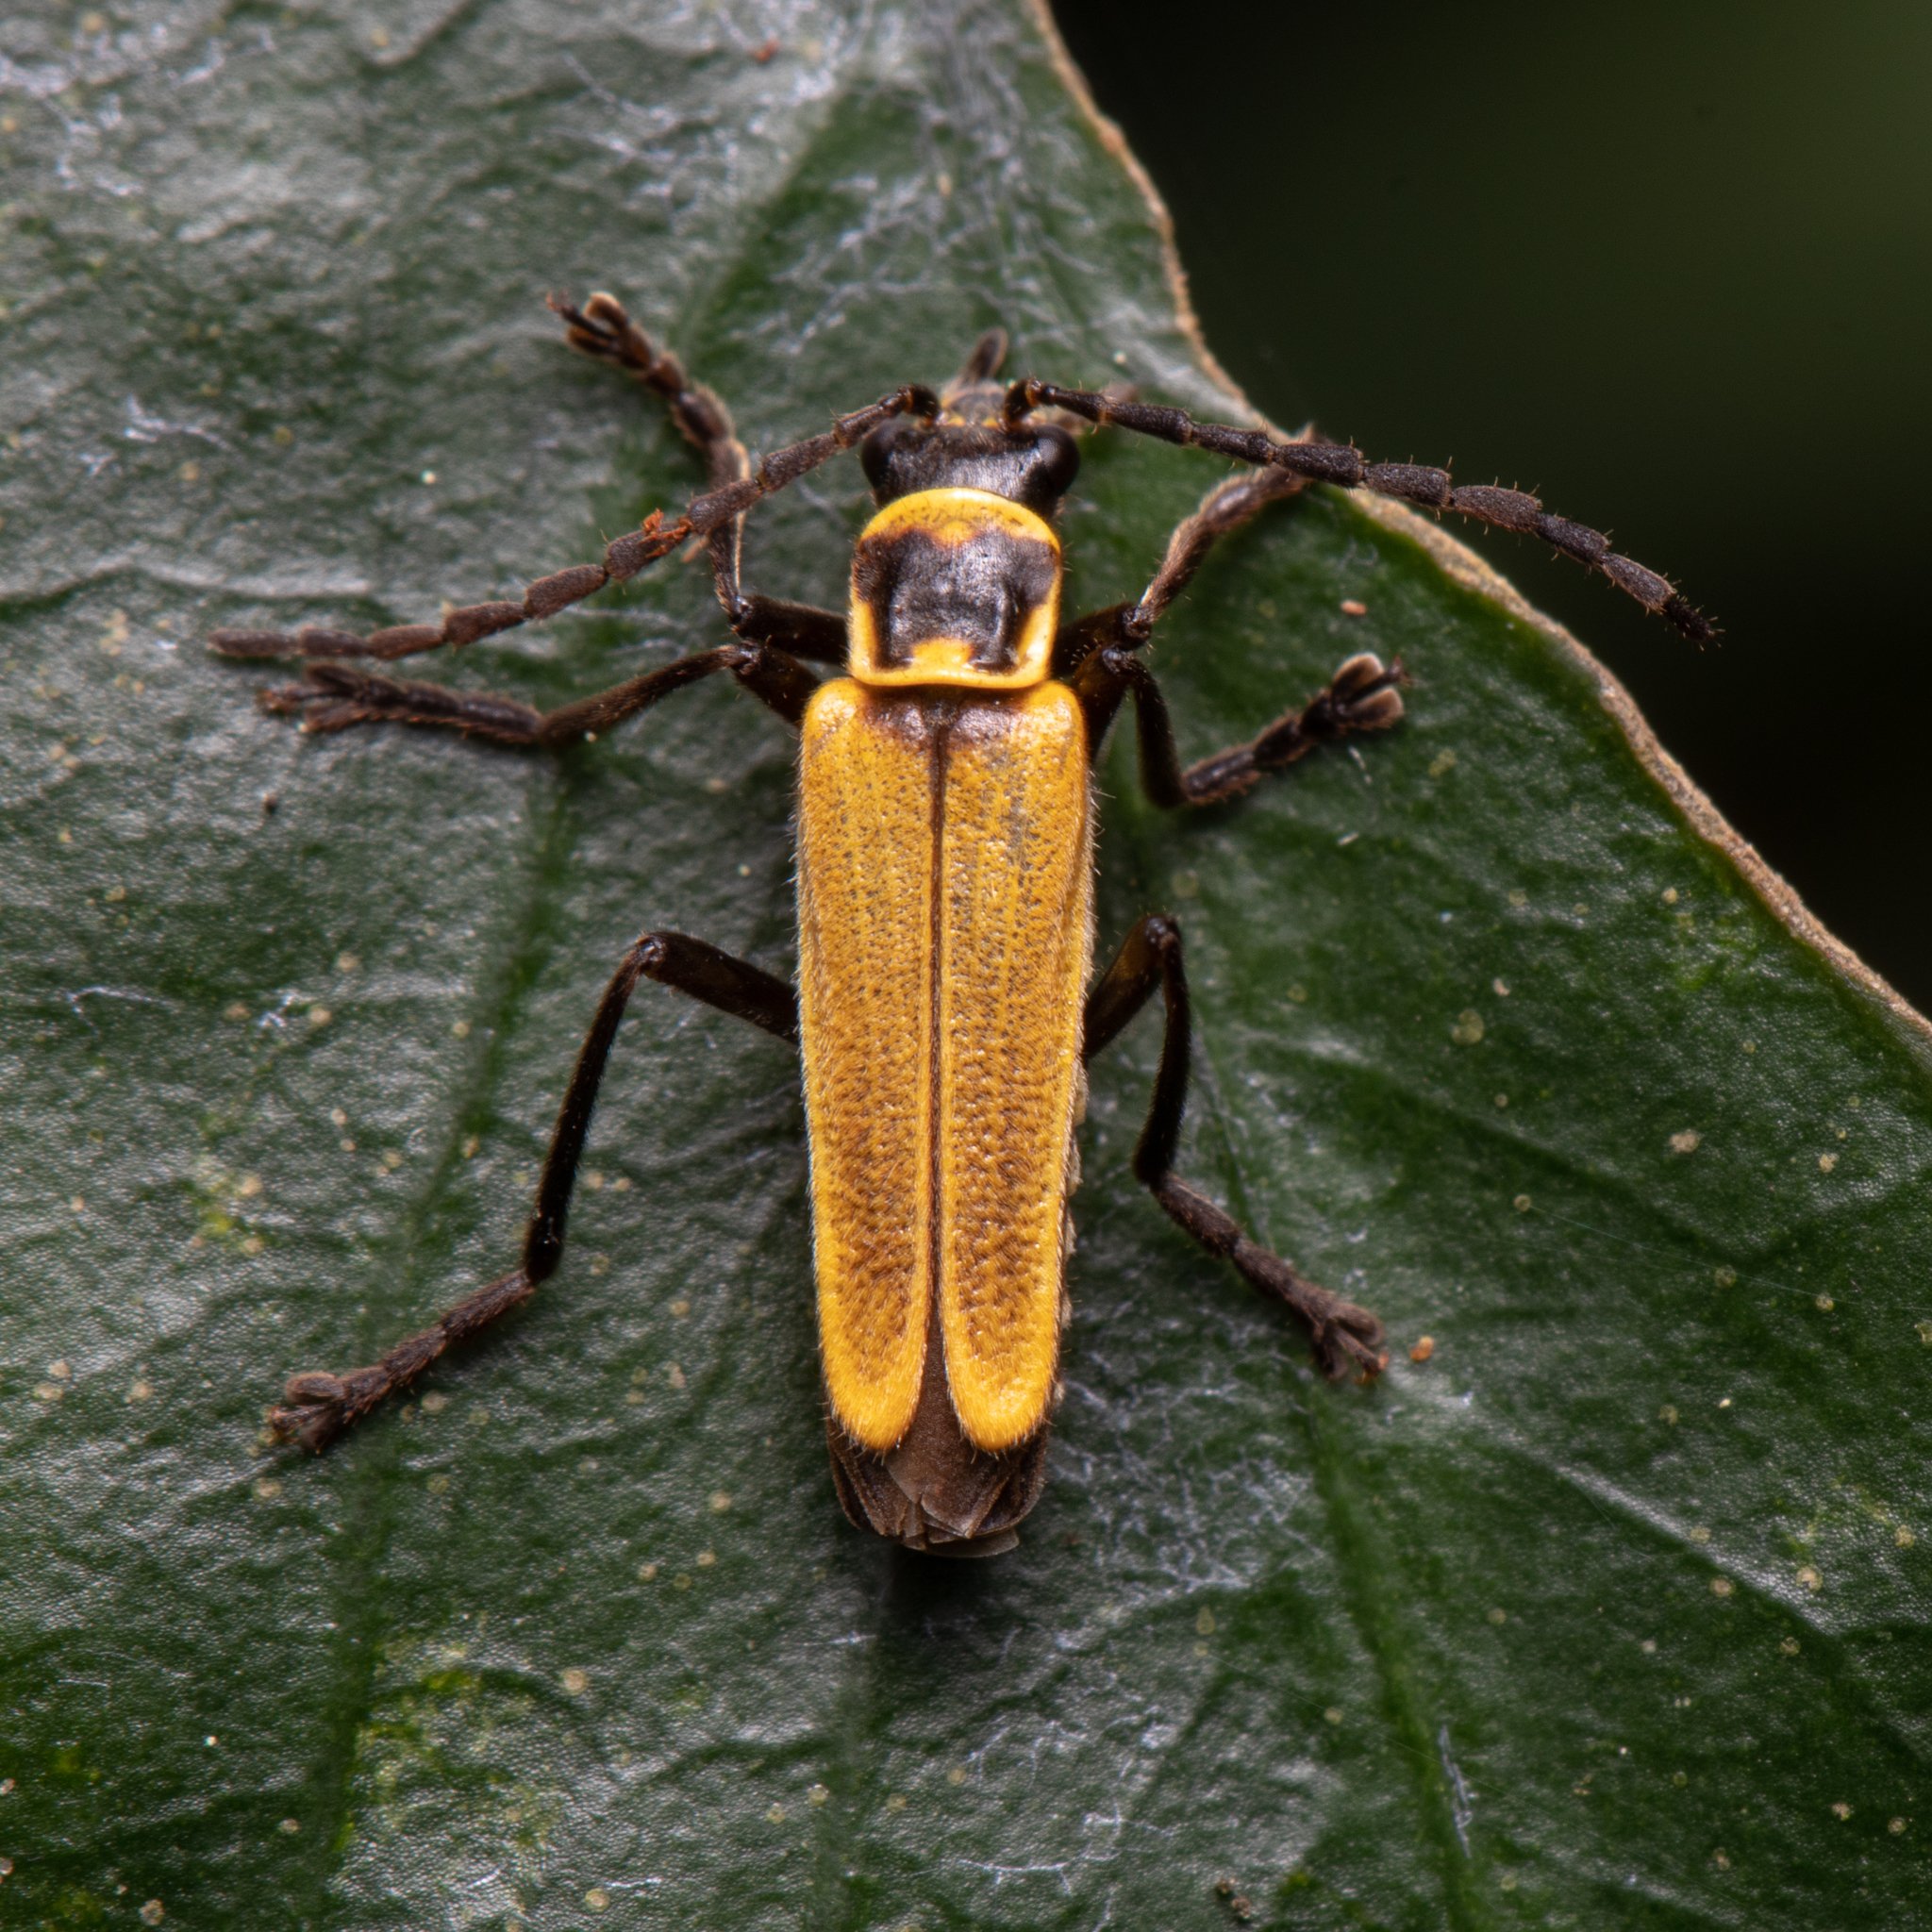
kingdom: Animalia
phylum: Arthropoda
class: Insecta
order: Coleoptera
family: Cantharidae
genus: Chauliognathus
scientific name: Chauliognathus
